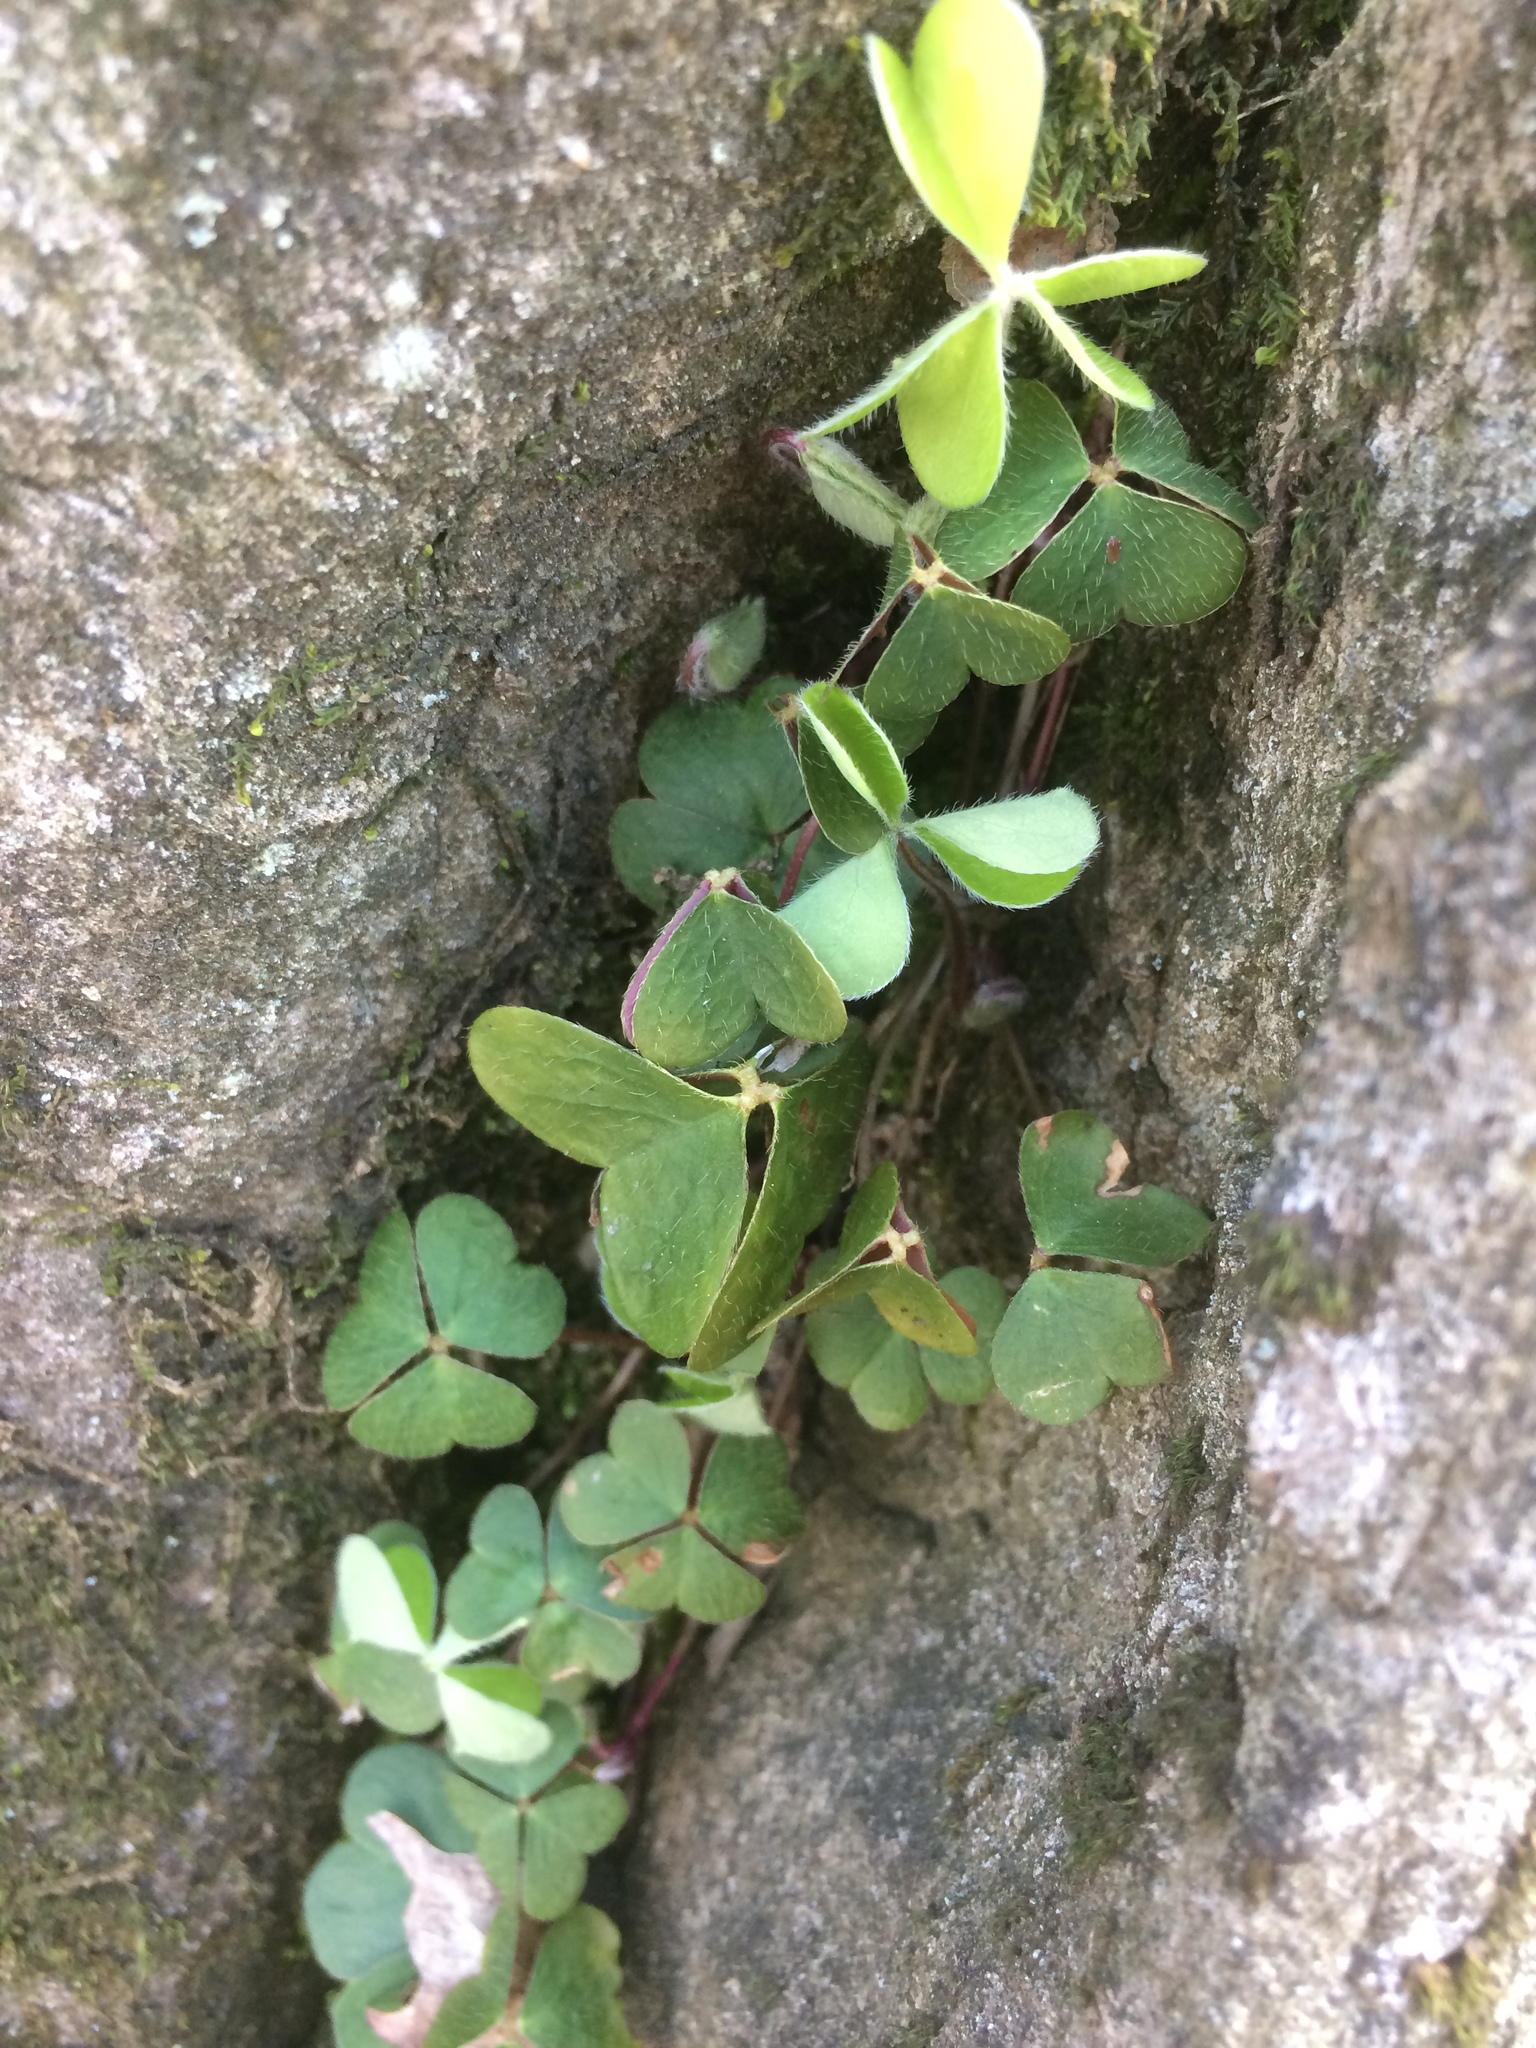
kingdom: Plantae
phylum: Tracheophyta
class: Magnoliopsida
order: Oxalidales
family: Oxalidaceae
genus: Oxalis
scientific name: Oxalis montana
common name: American wood-sorrel
